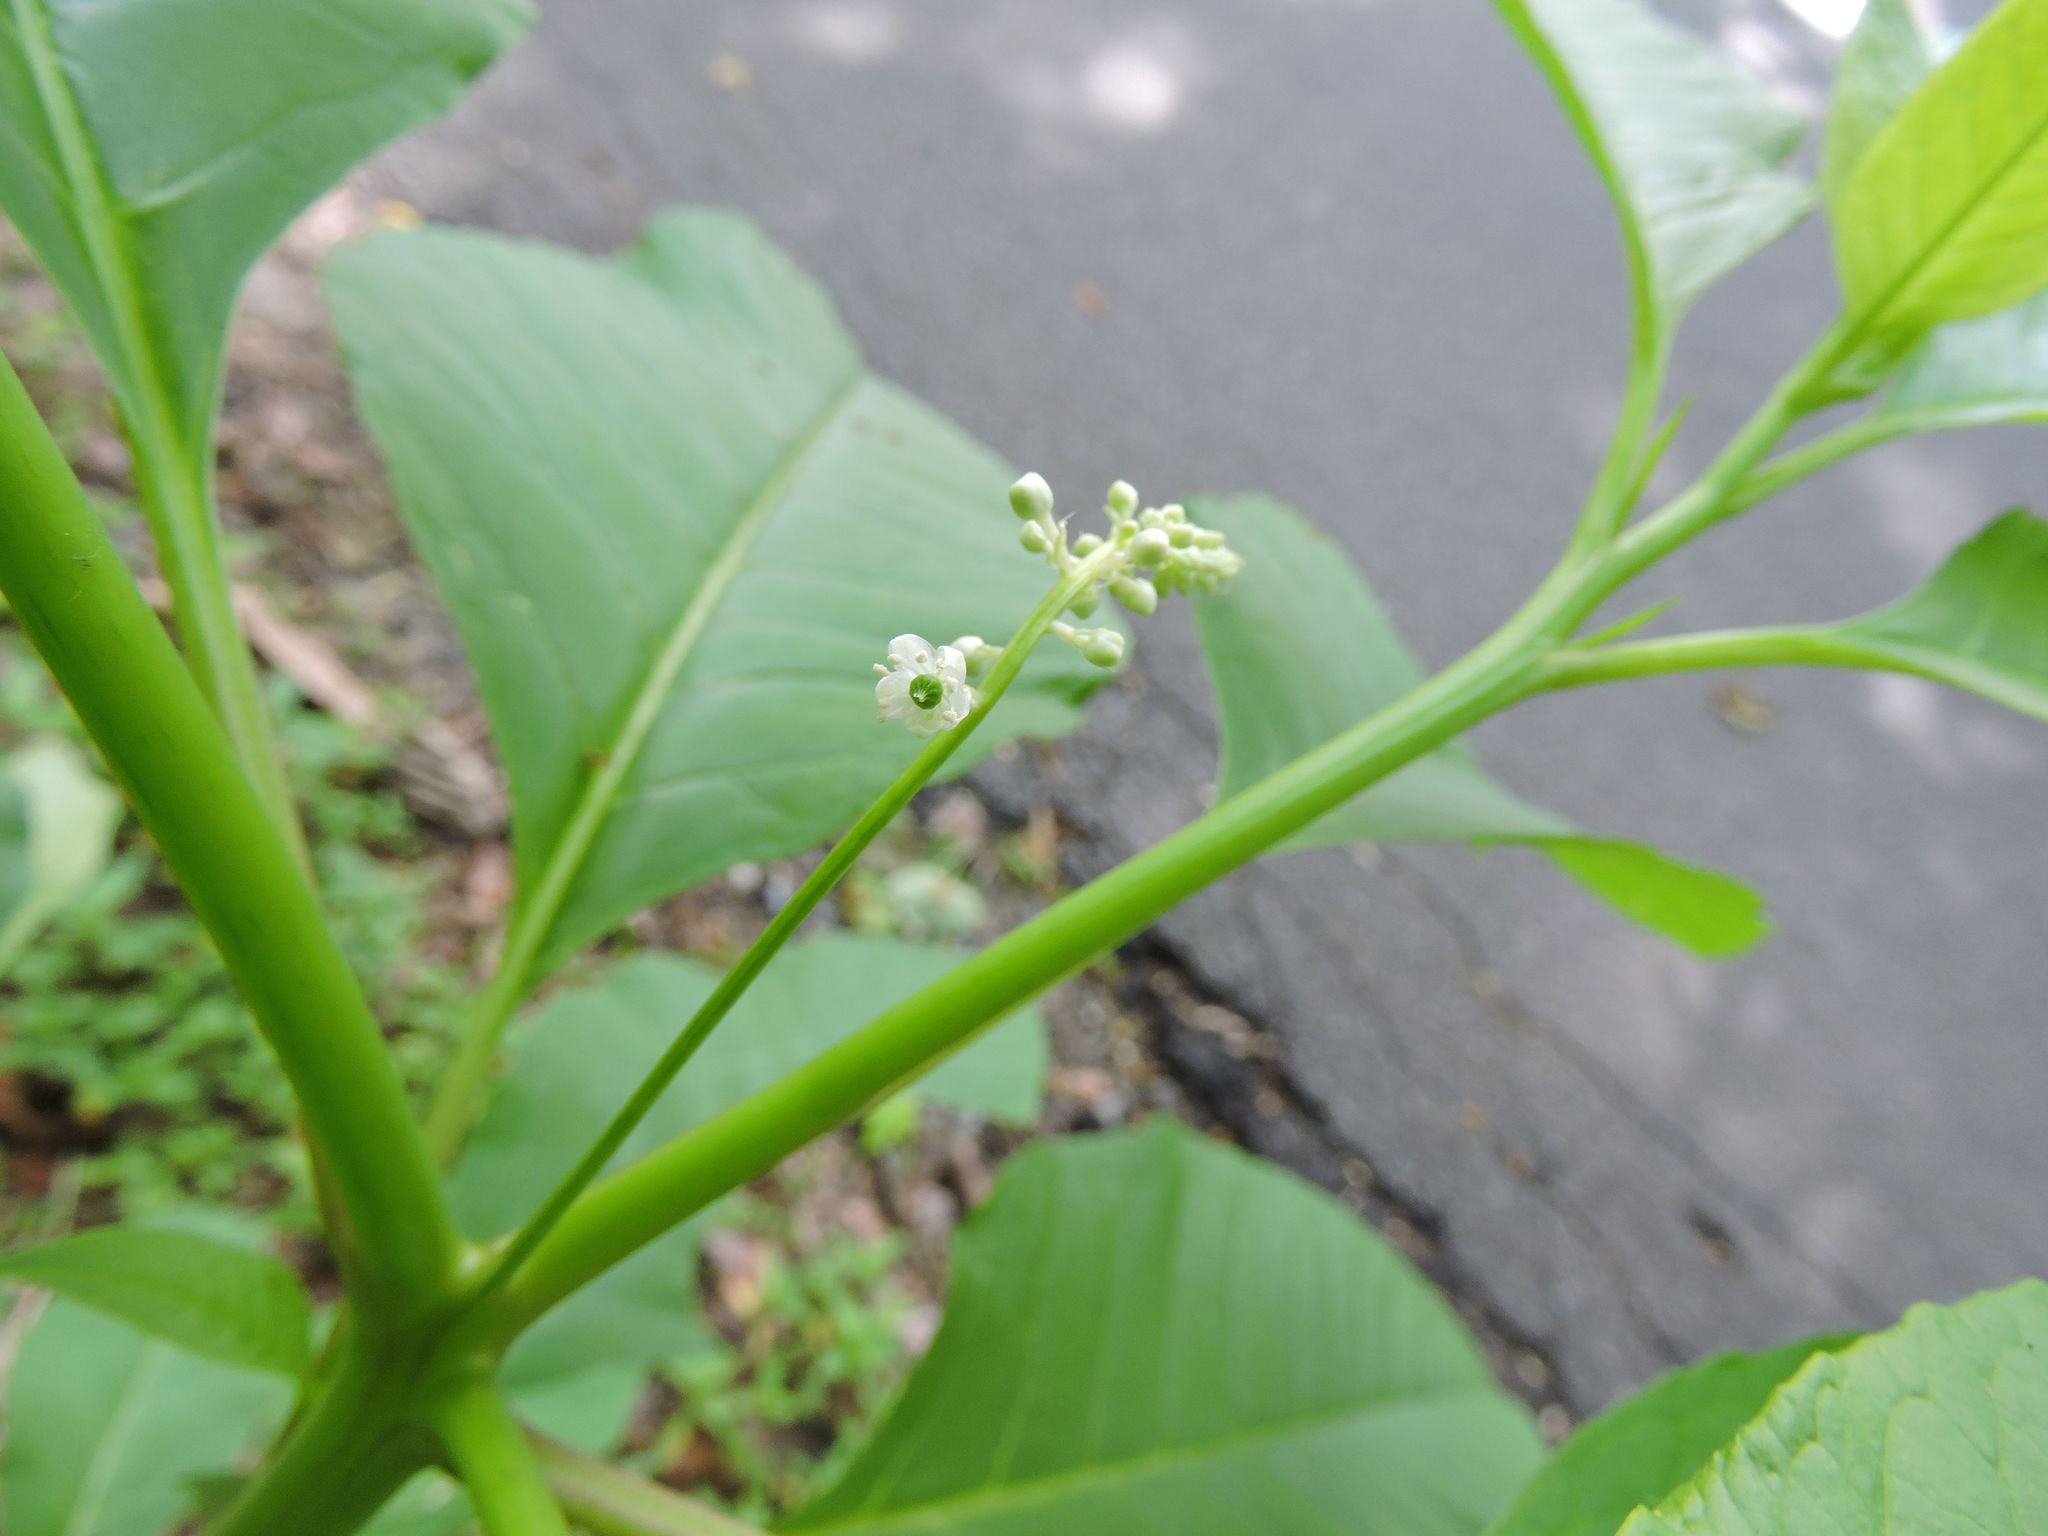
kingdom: Plantae
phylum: Tracheophyta
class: Magnoliopsida
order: Caryophyllales
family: Phytolaccaceae
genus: Phytolacca
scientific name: Phytolacca americana
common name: American pokeweed
